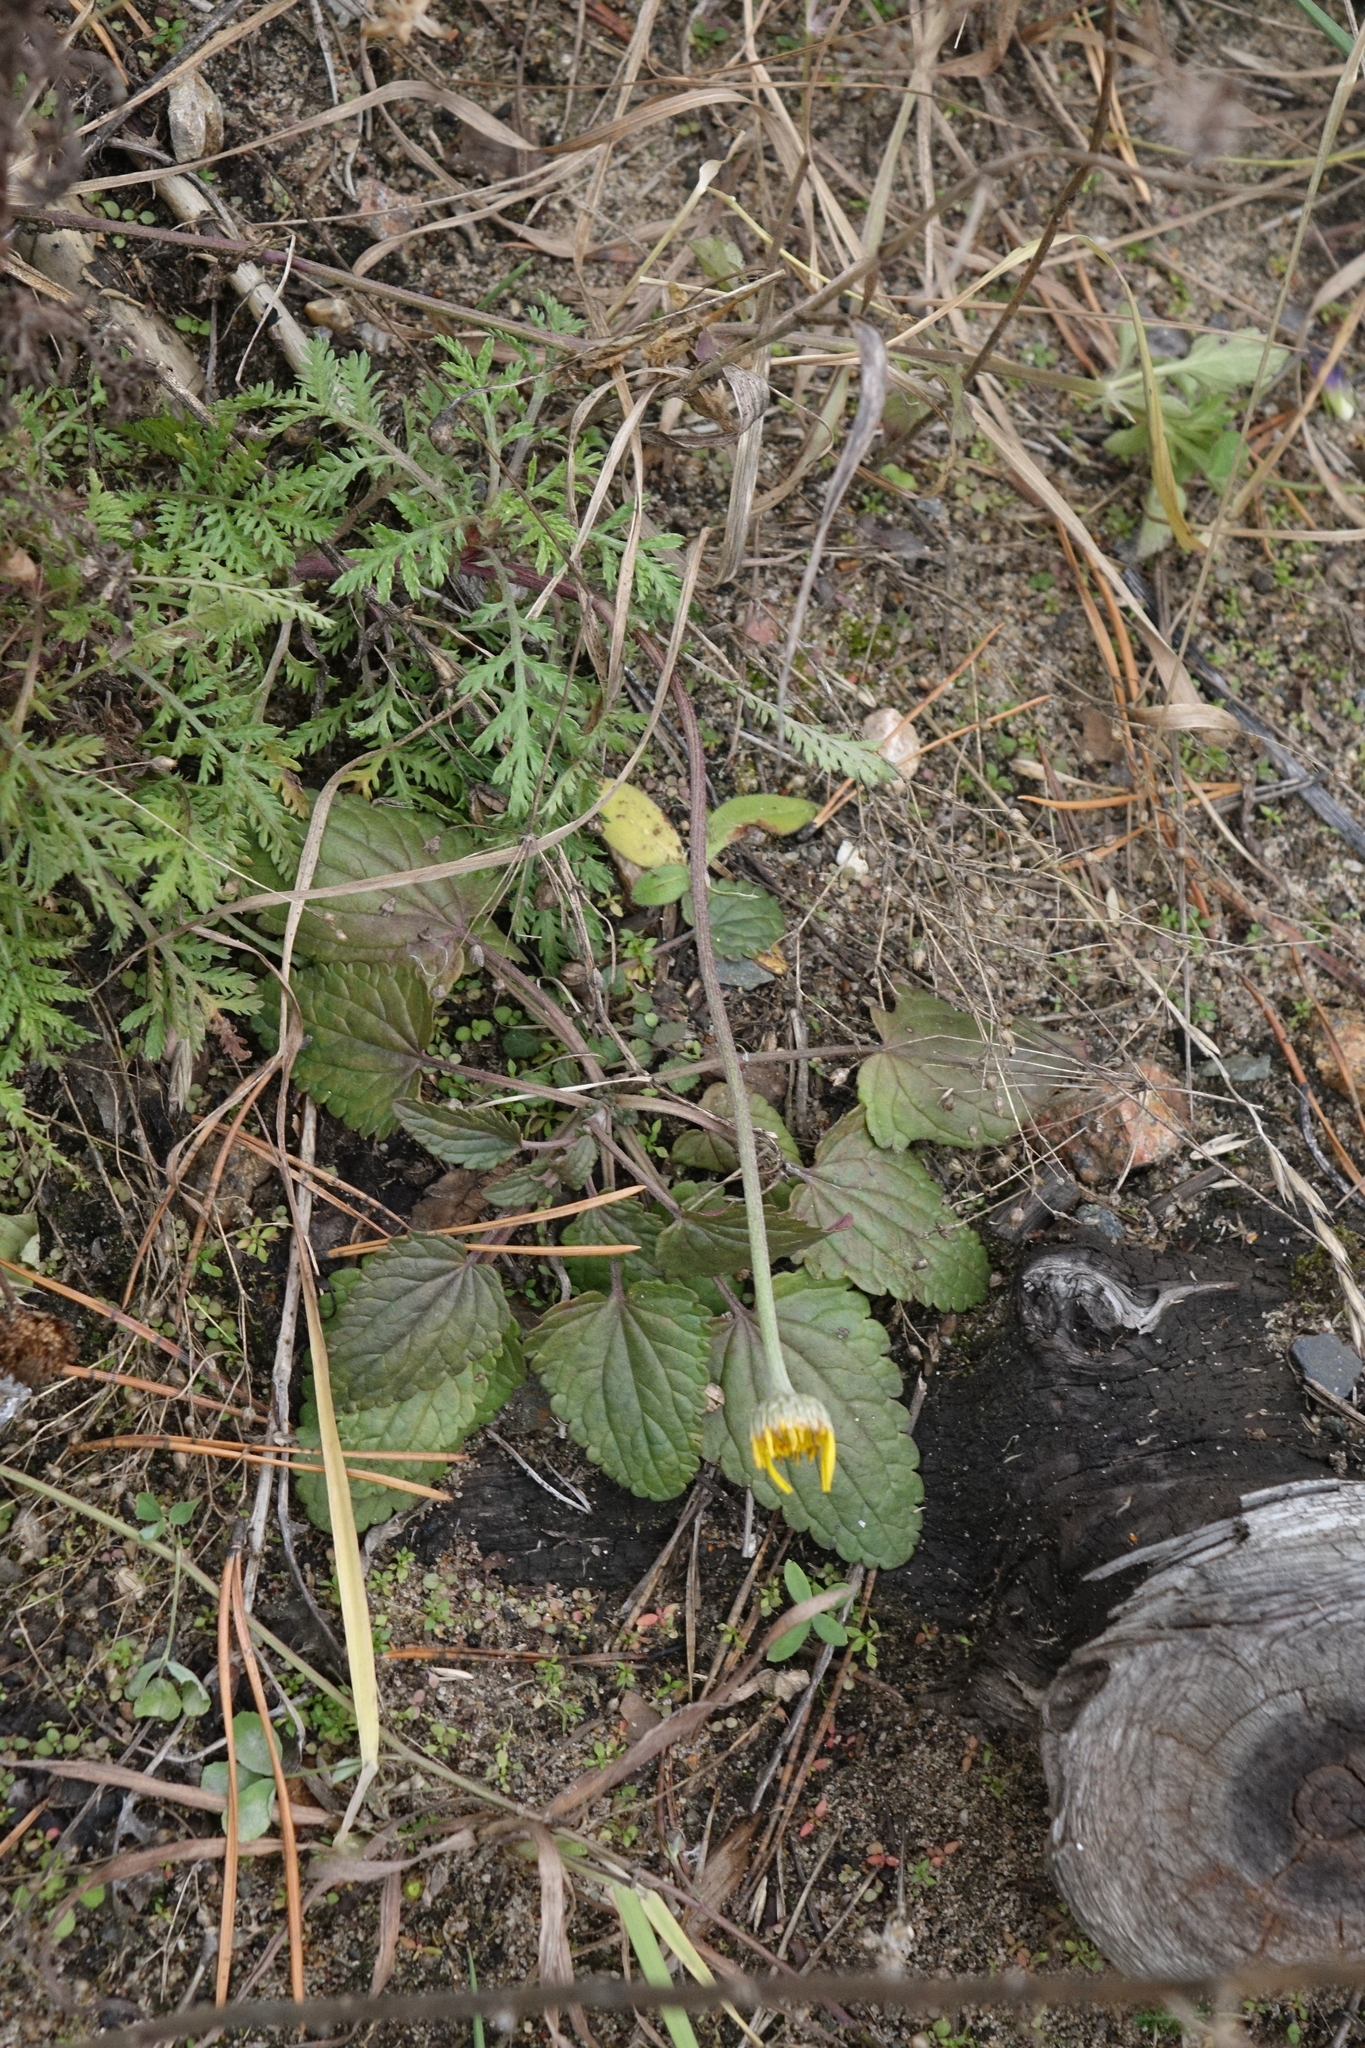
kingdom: Plantae
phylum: Tracheophyta
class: Magnoliopsida
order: Asterales
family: Asteraceae
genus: Cota
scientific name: Cota tinctoria
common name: Golden chamomile
